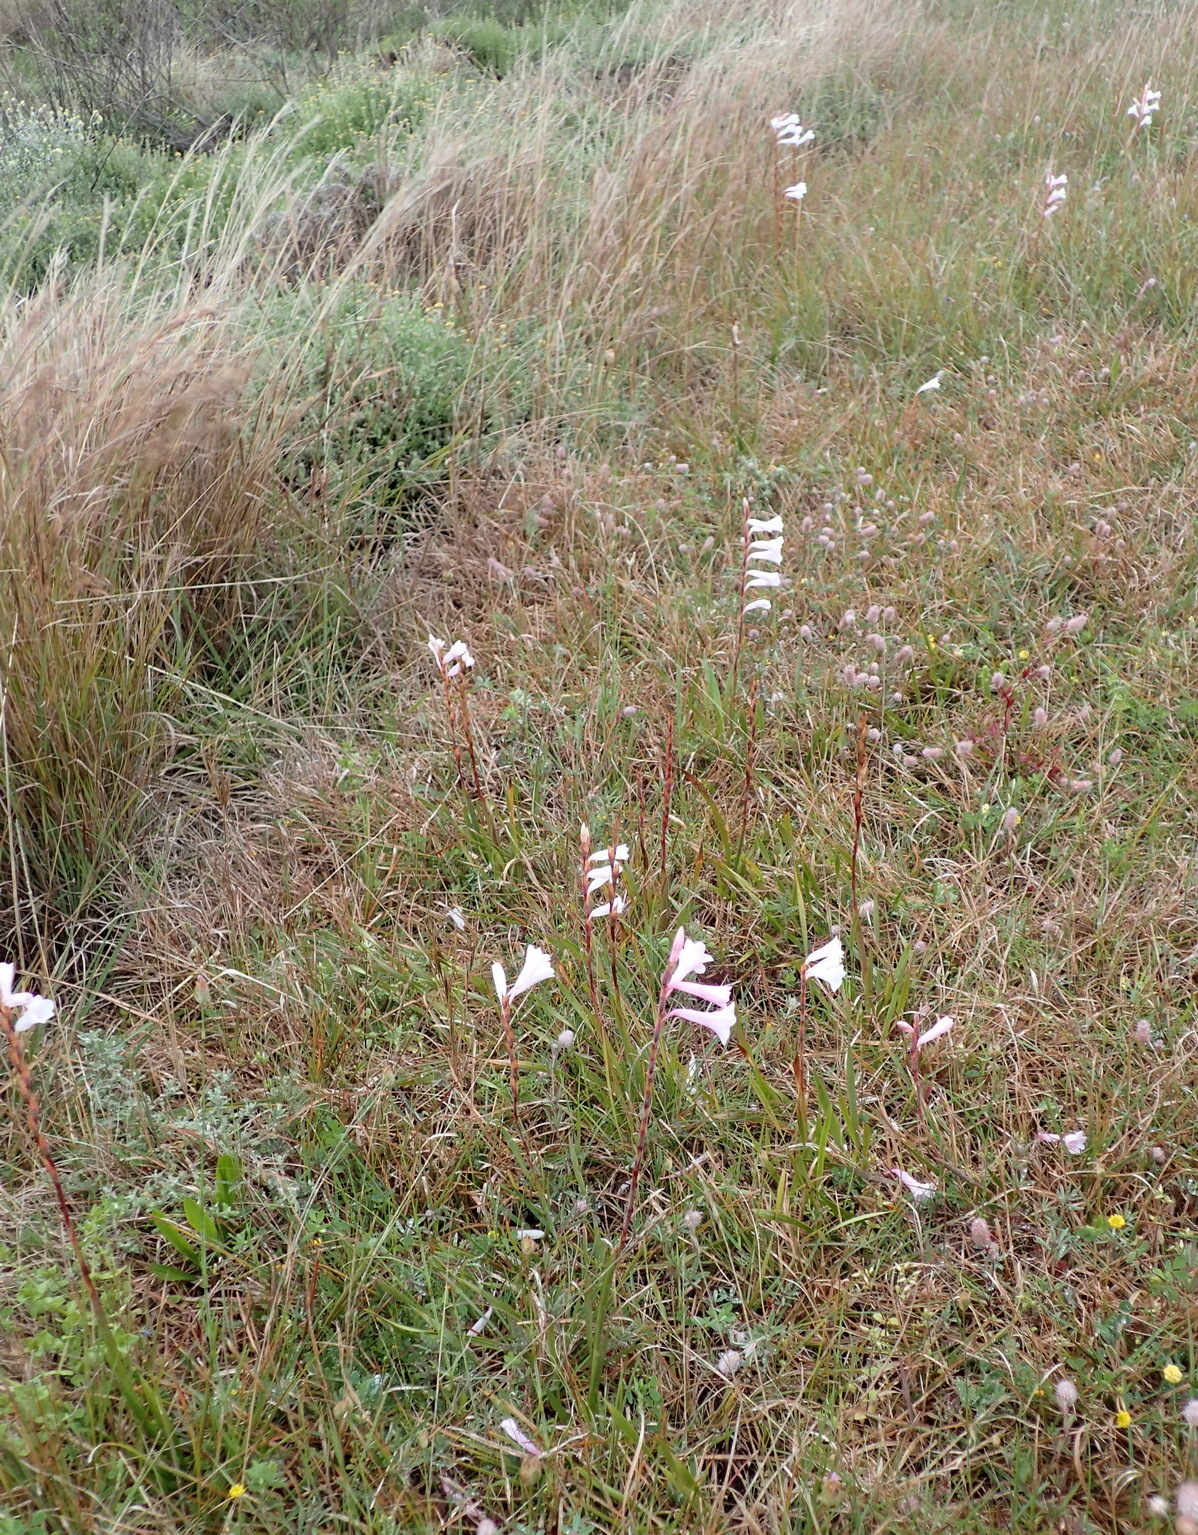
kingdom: Plantae
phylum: Tracheophyta
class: Liliopsida
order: Asparagales
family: Iridaceae
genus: Watsonia
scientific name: Watsonia laccata
